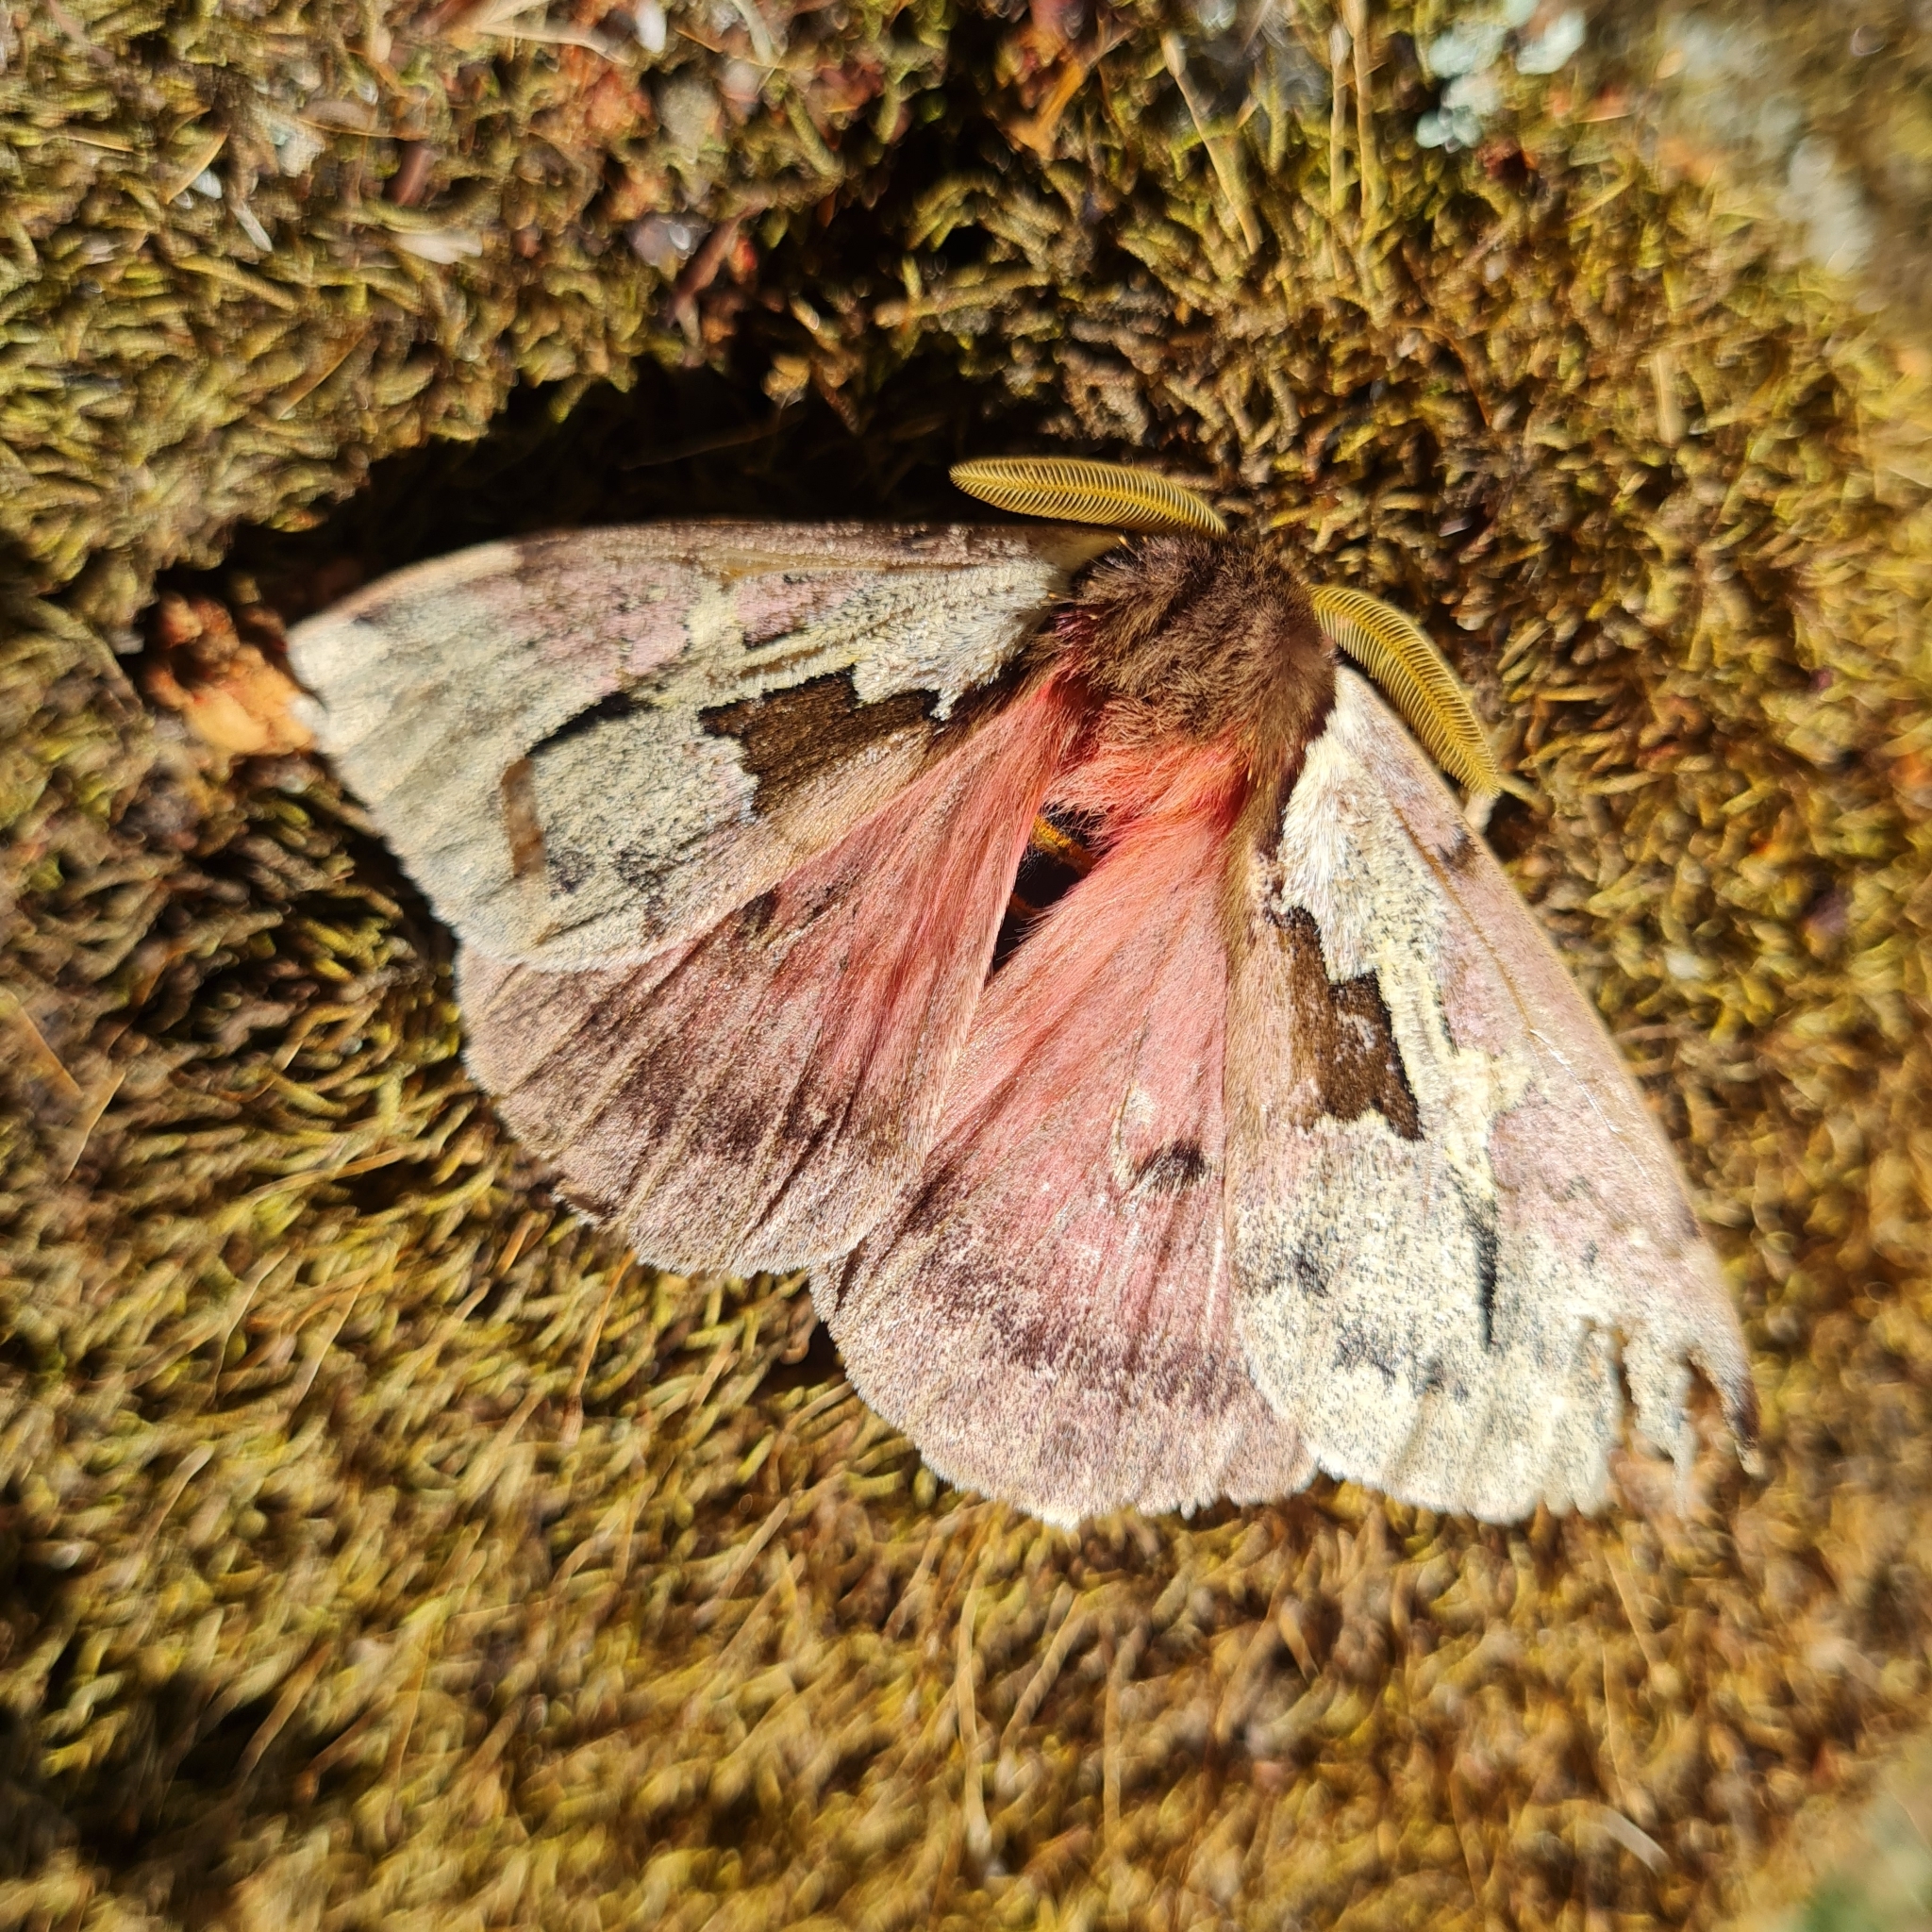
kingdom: Animalia
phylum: Arthropoda
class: Insecta
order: Lepidoptera
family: Saturniidae
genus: Dirphiopsis
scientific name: Dirphiopsis multicolor
